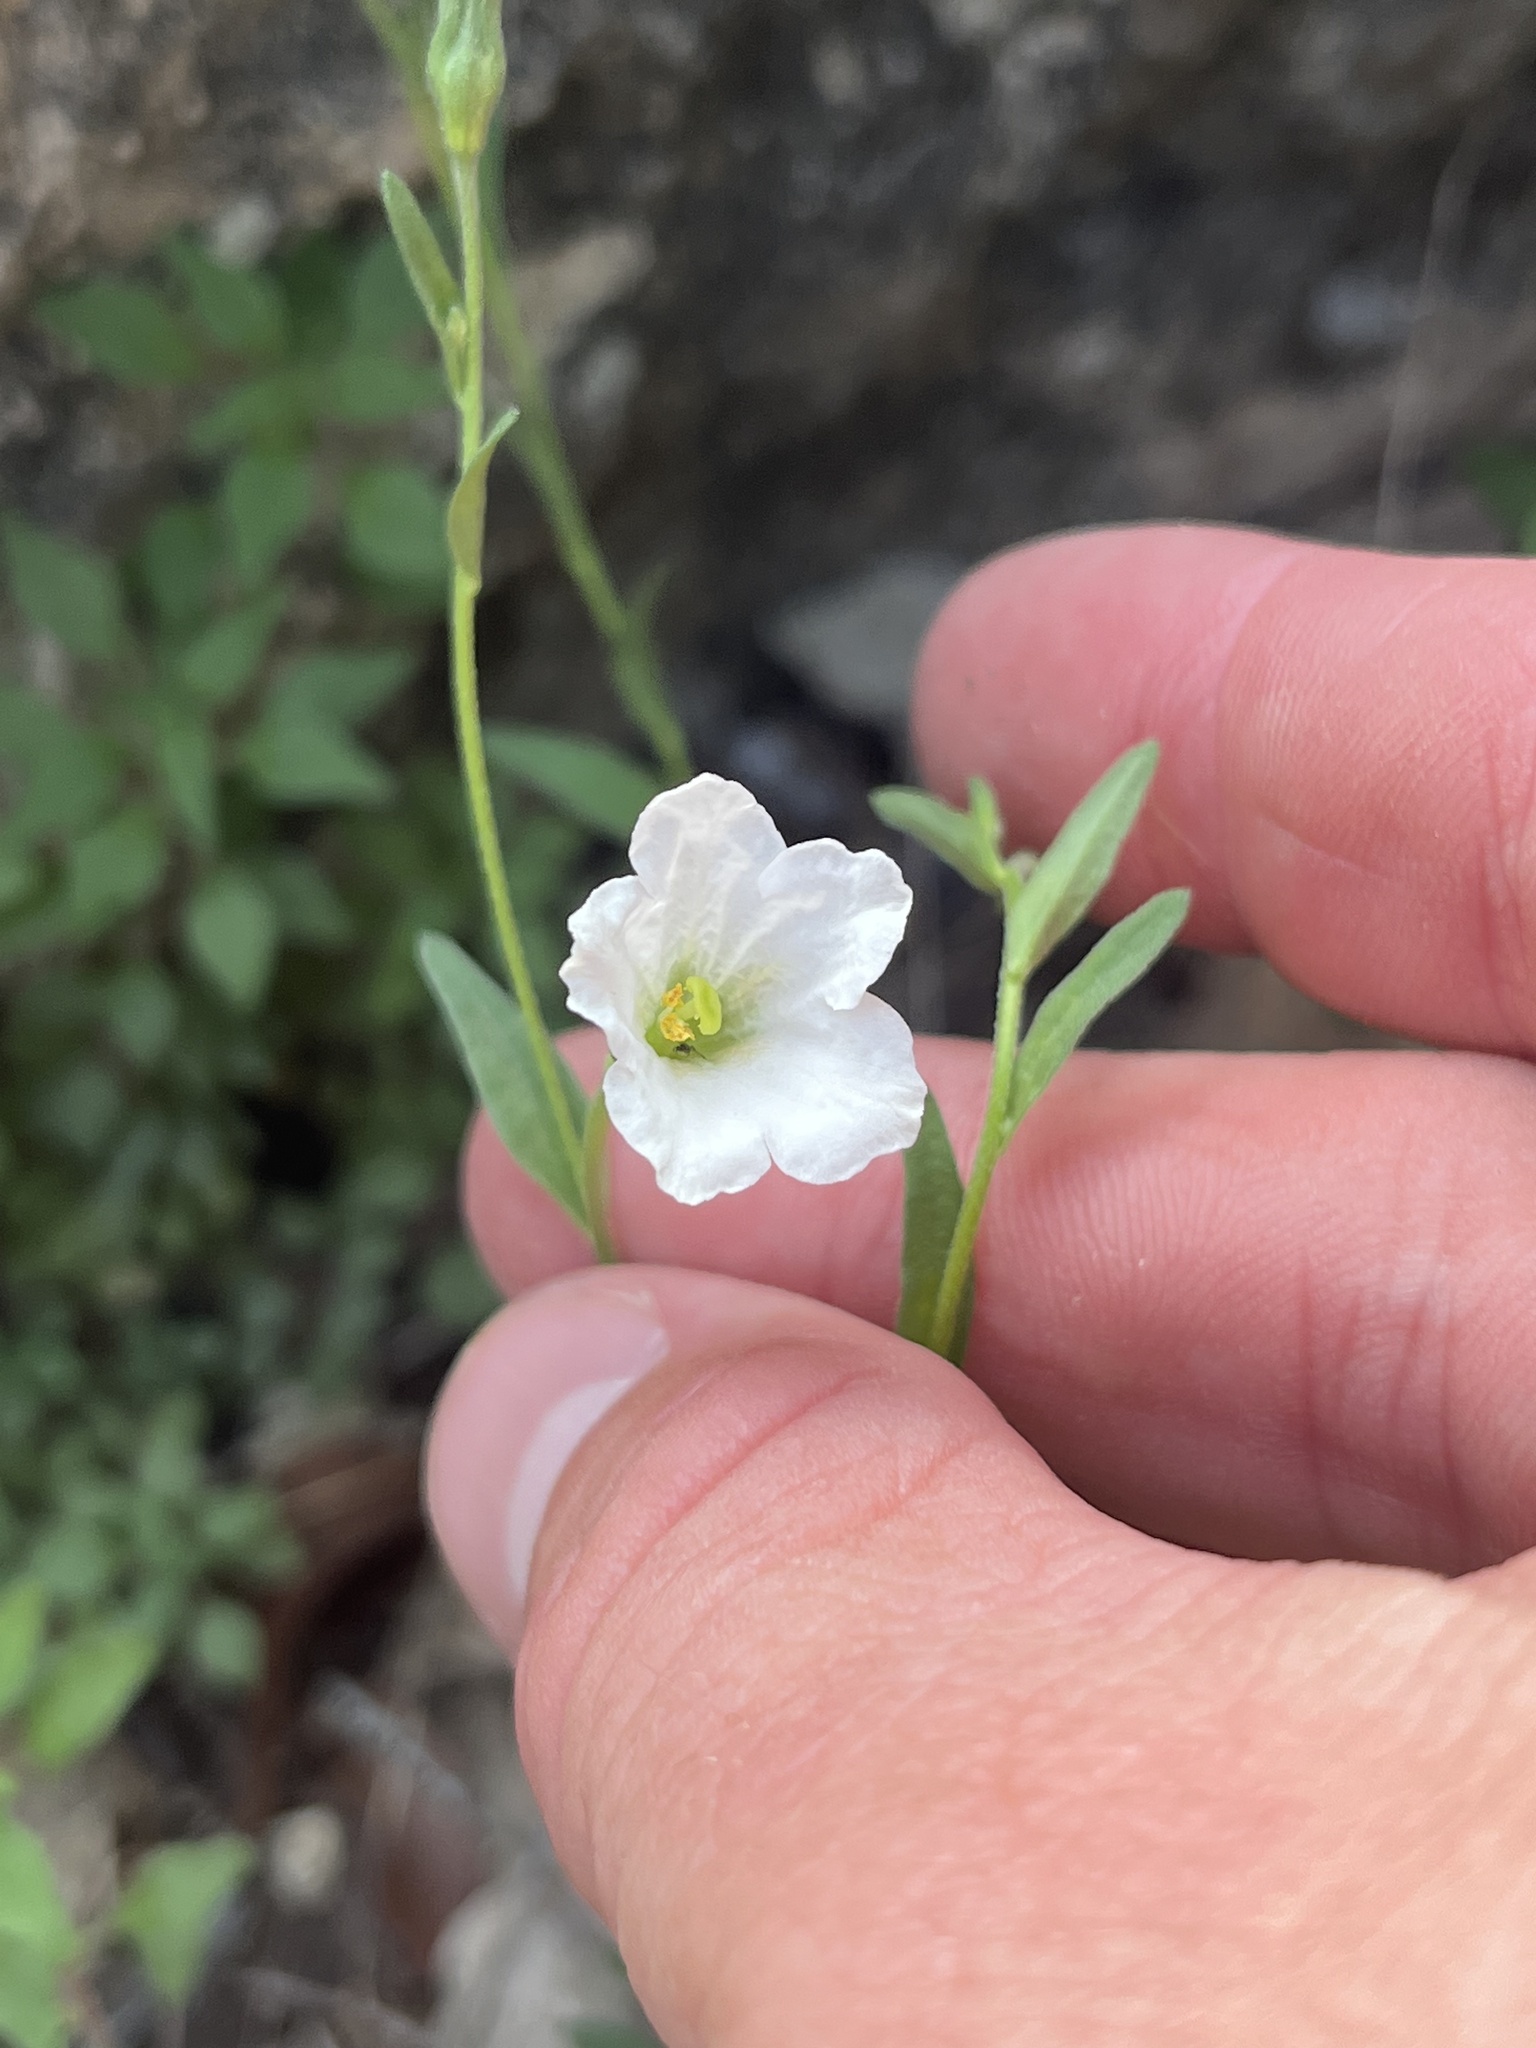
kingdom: Plantae
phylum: Tracheophyta
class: Magnoliopsida
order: Solanales
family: Solanaceae
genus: Salpiglossis
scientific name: Salpiglossis erecta
